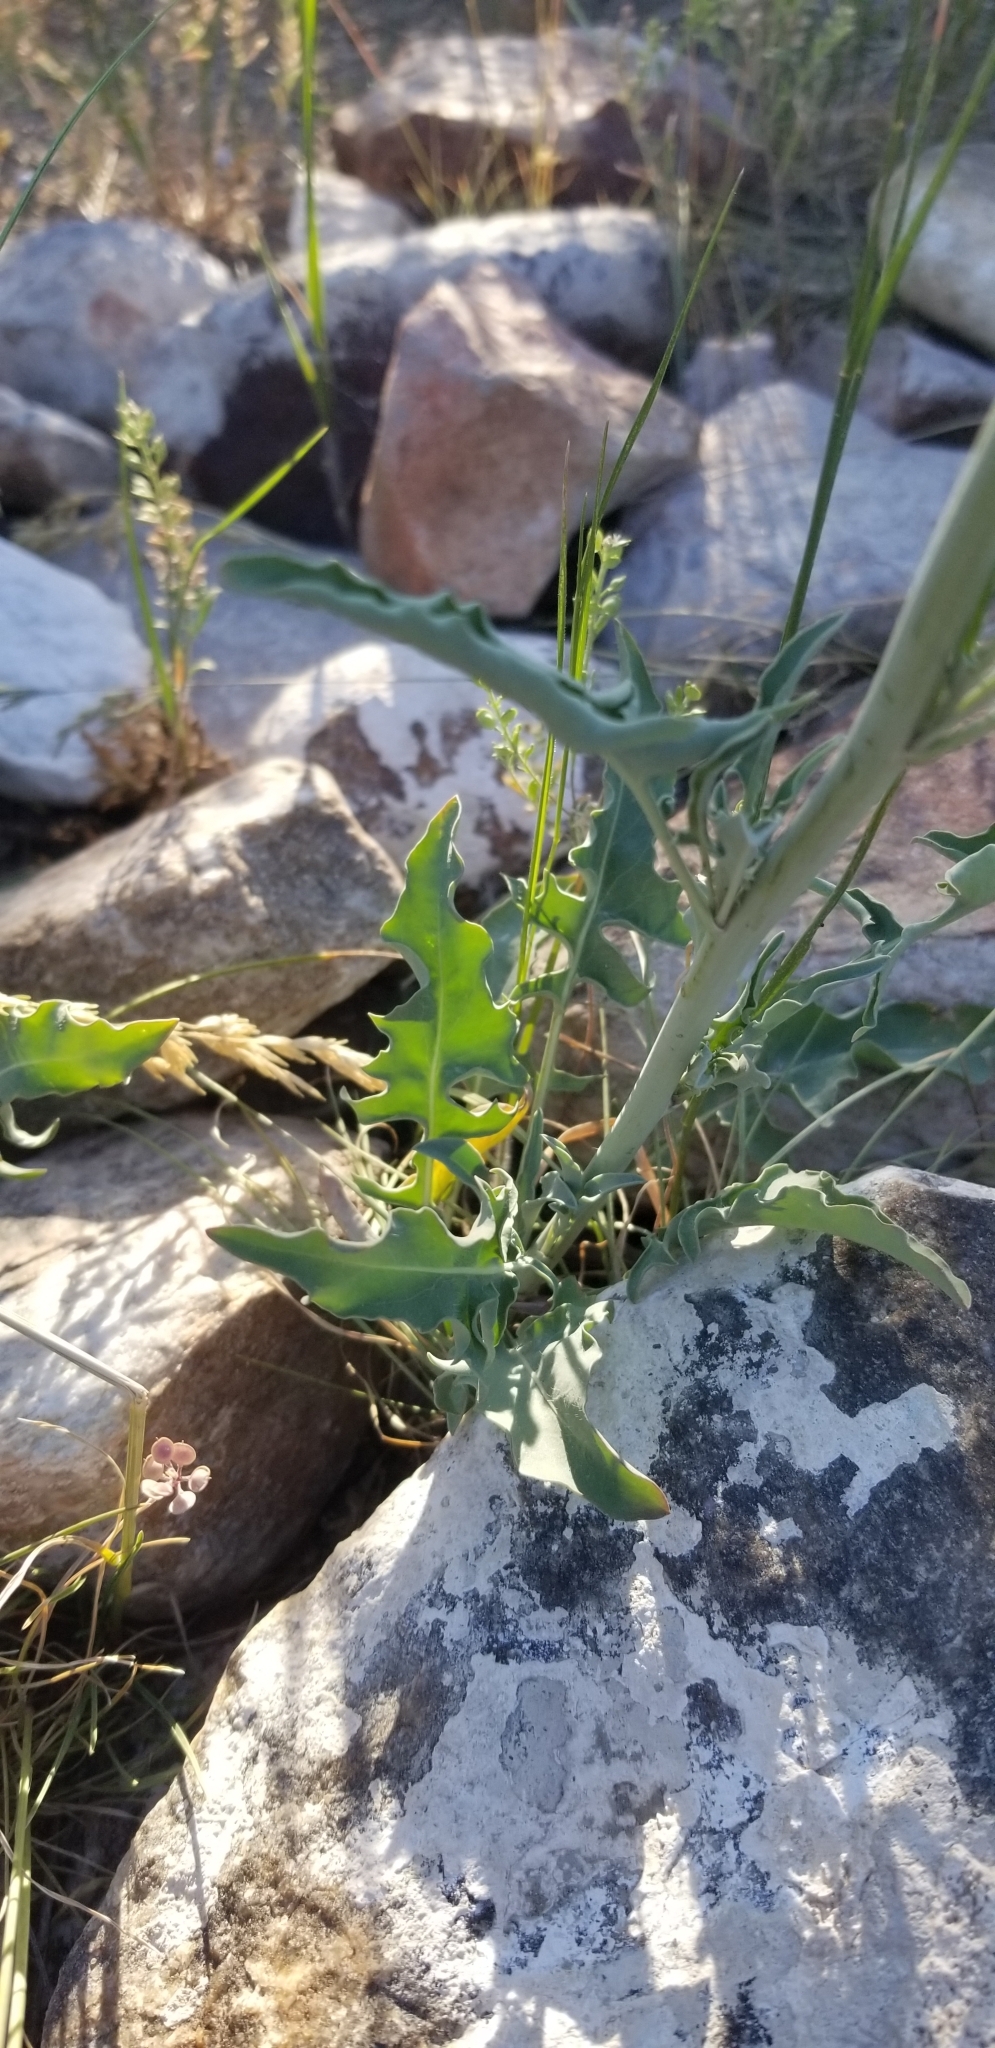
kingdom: Plantae
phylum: Tracheophyta
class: Magnoliopsida
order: Brassicales
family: Brassicaceae
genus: Streptanthus
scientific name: Streptanthus crassicaulis
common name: Thick-stem wild cabbage
